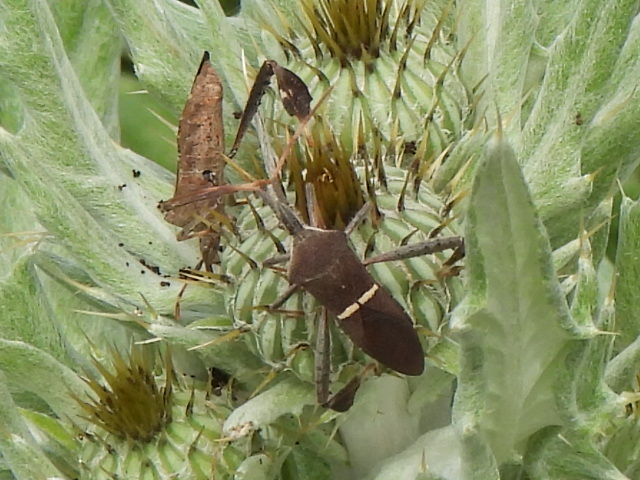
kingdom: Animalia
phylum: Arthropoda
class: Insecta
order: Hemiptera
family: Coreidae
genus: Leptoglossus
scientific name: Leptoglossus phyllopus
